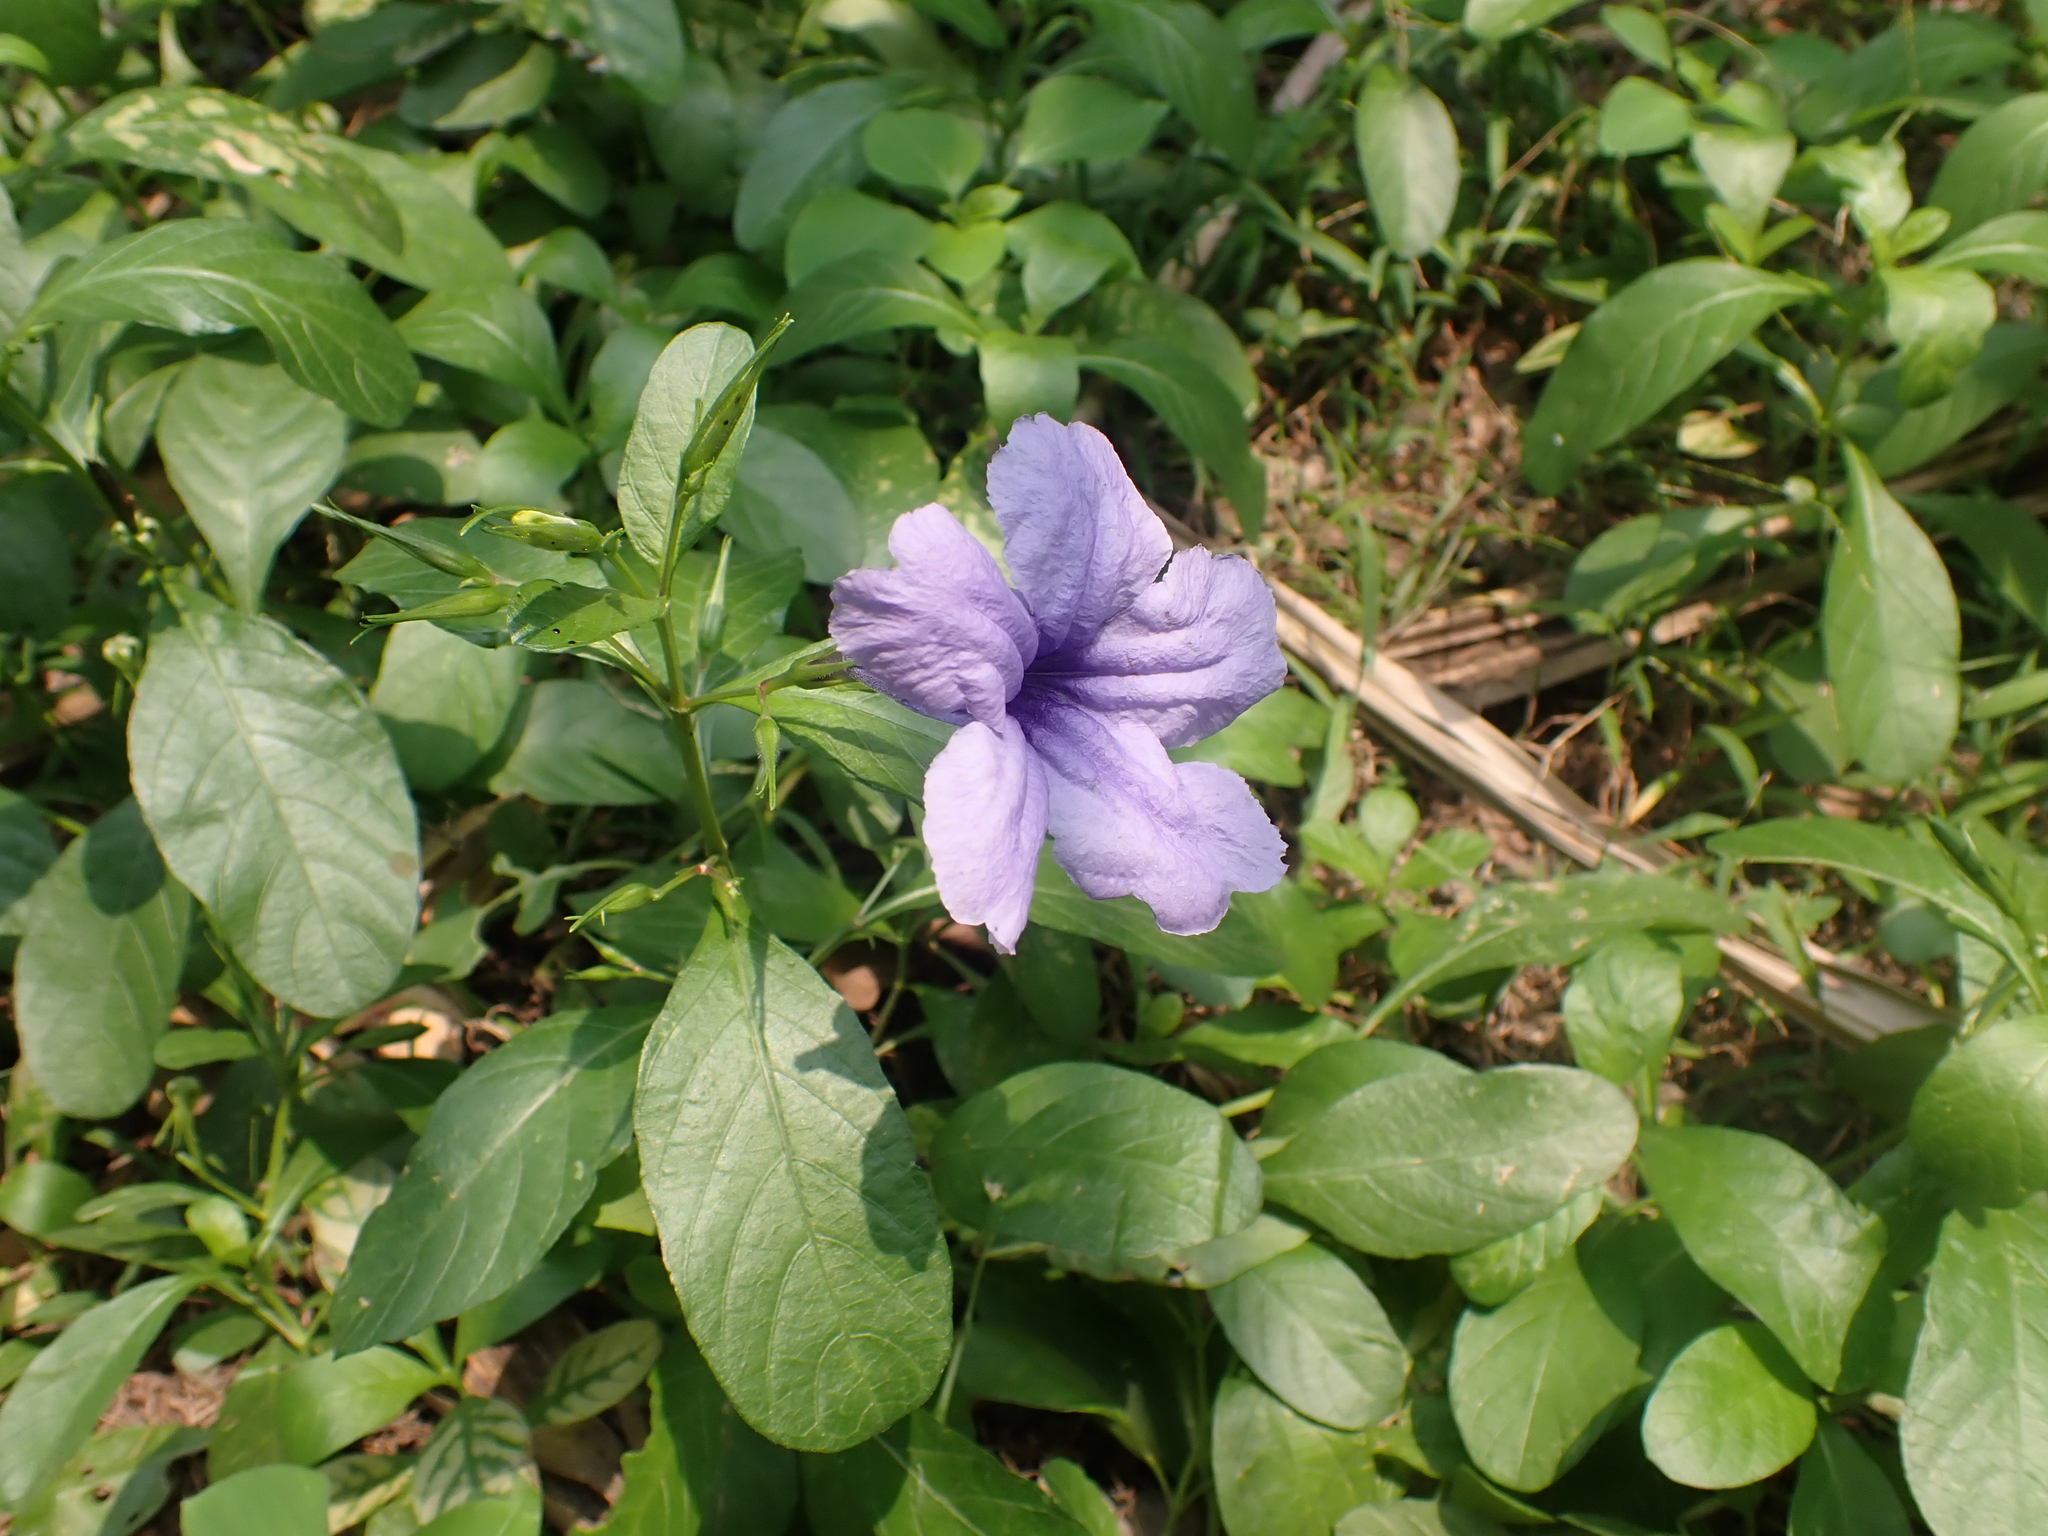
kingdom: Plantae
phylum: Tracheophyta
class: Magnoliopsida
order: Lamiales
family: Acanthaceae
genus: Ruellia
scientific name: Ruellia tuberosa
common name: Devil's bit
